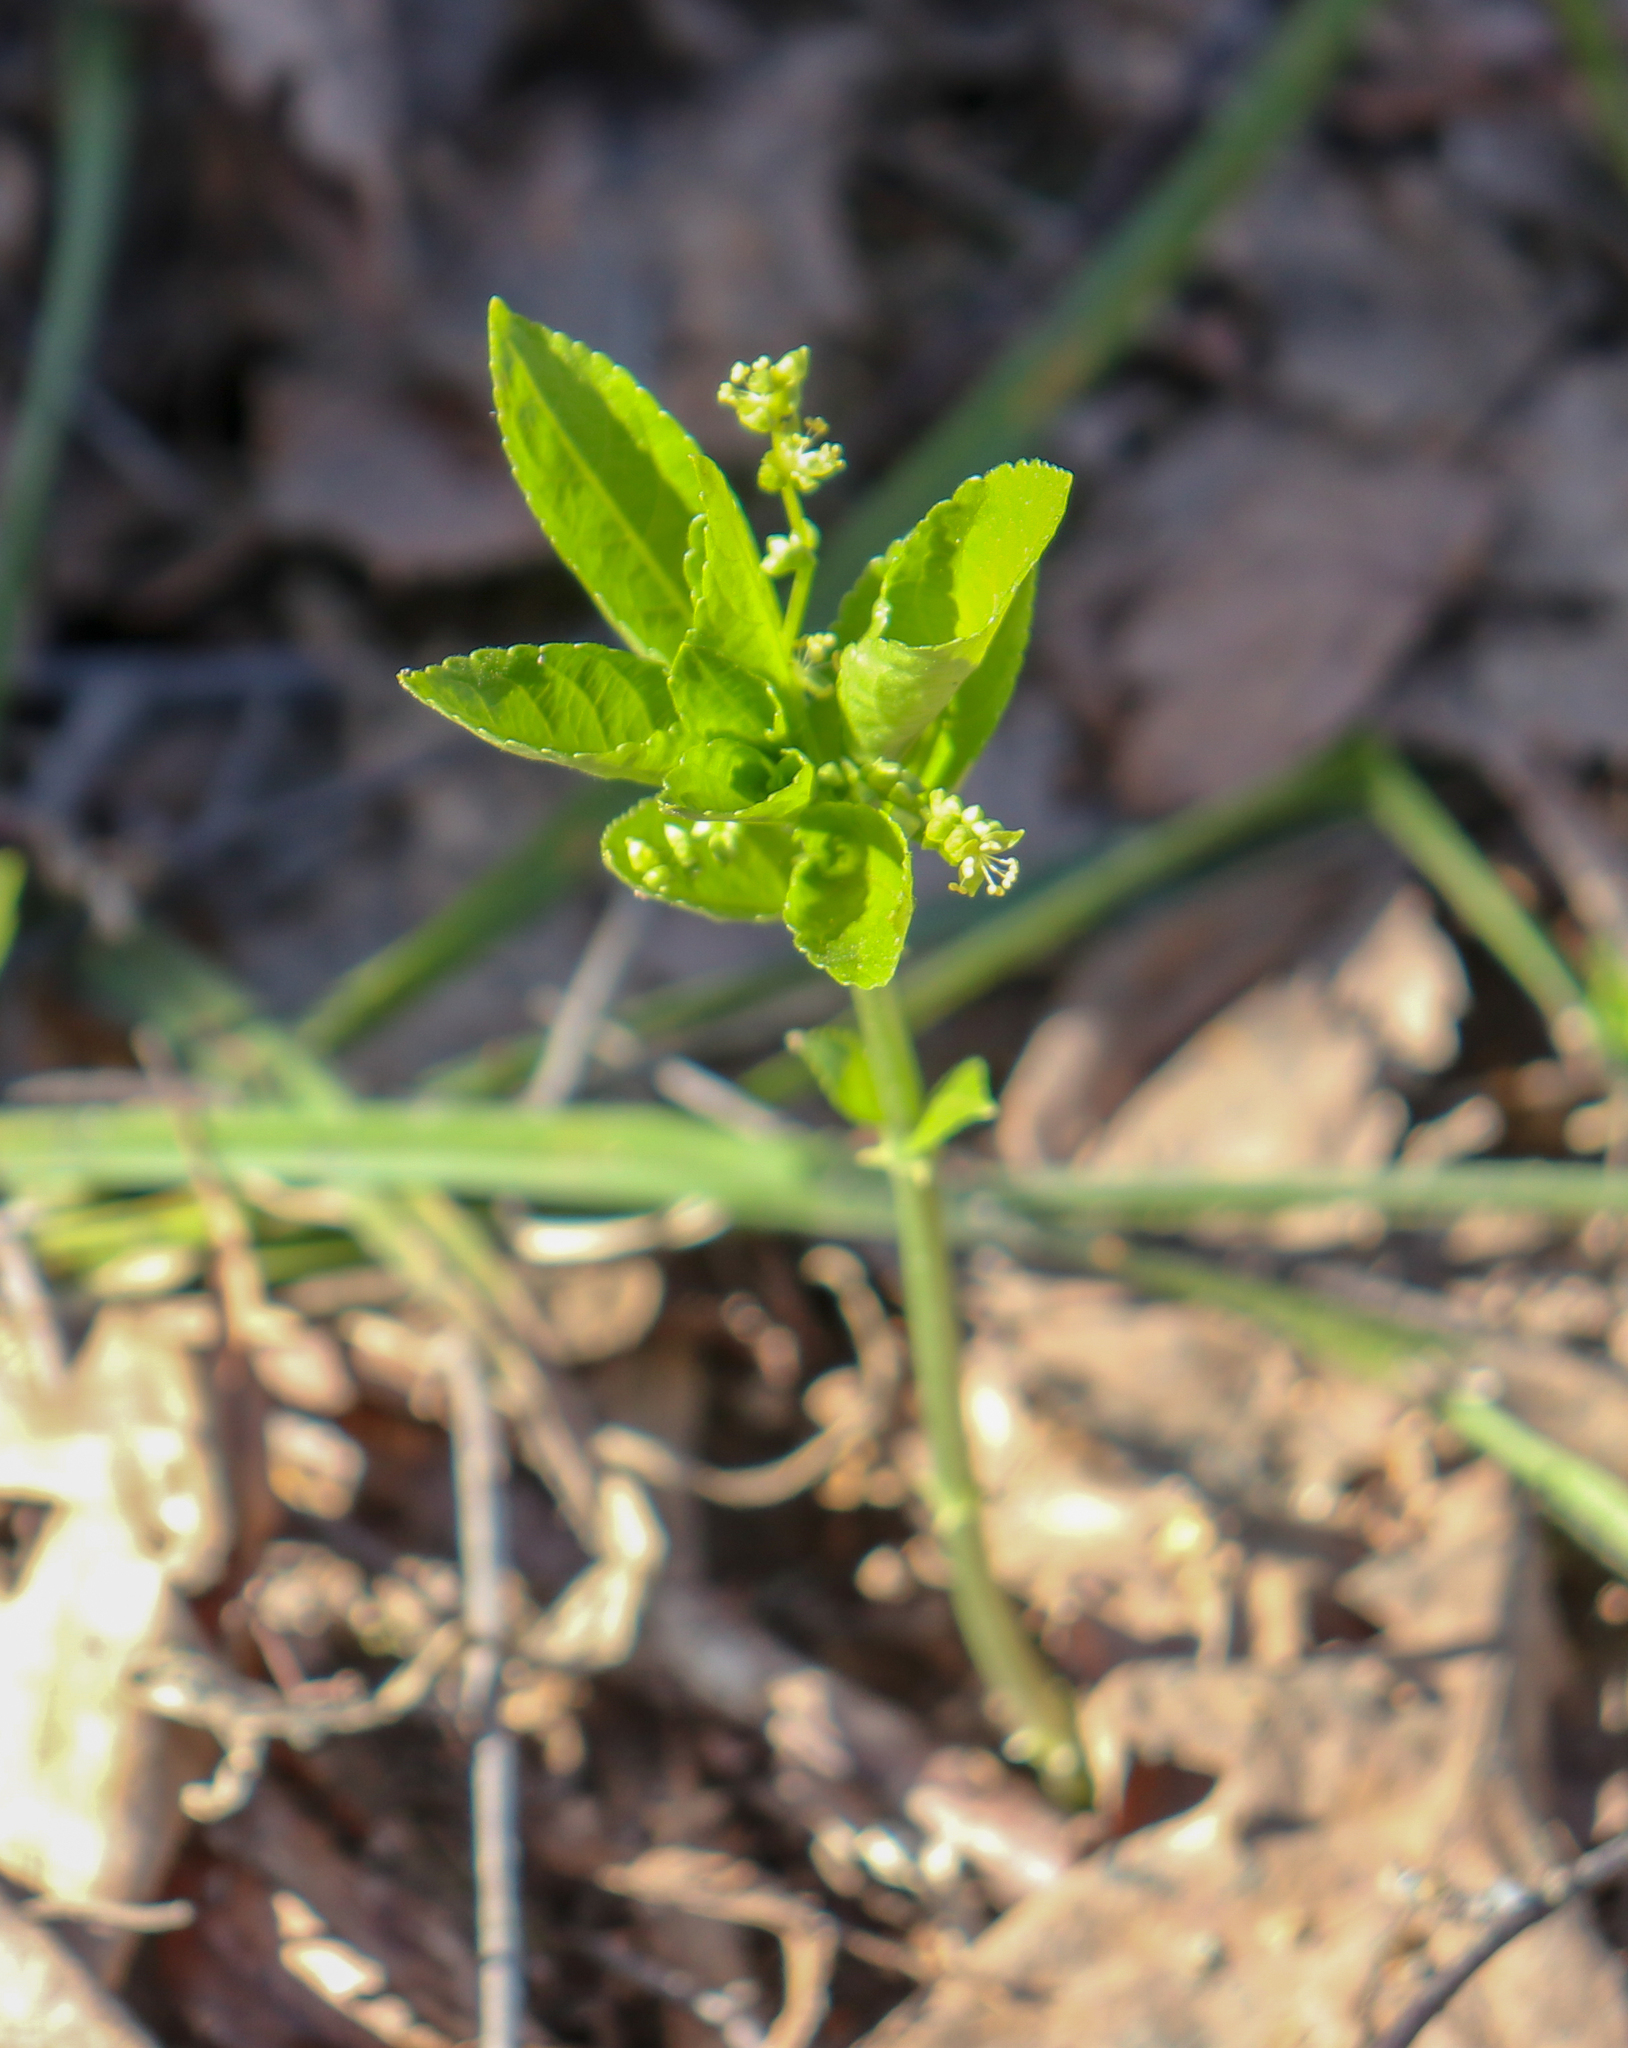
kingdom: Plantae
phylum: Tracheophyta
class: Magnoliopsida
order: Malpighiales
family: Euphorbiaceae
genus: Mercurialis
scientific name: Mercurialis perennis
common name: Dog mercury
